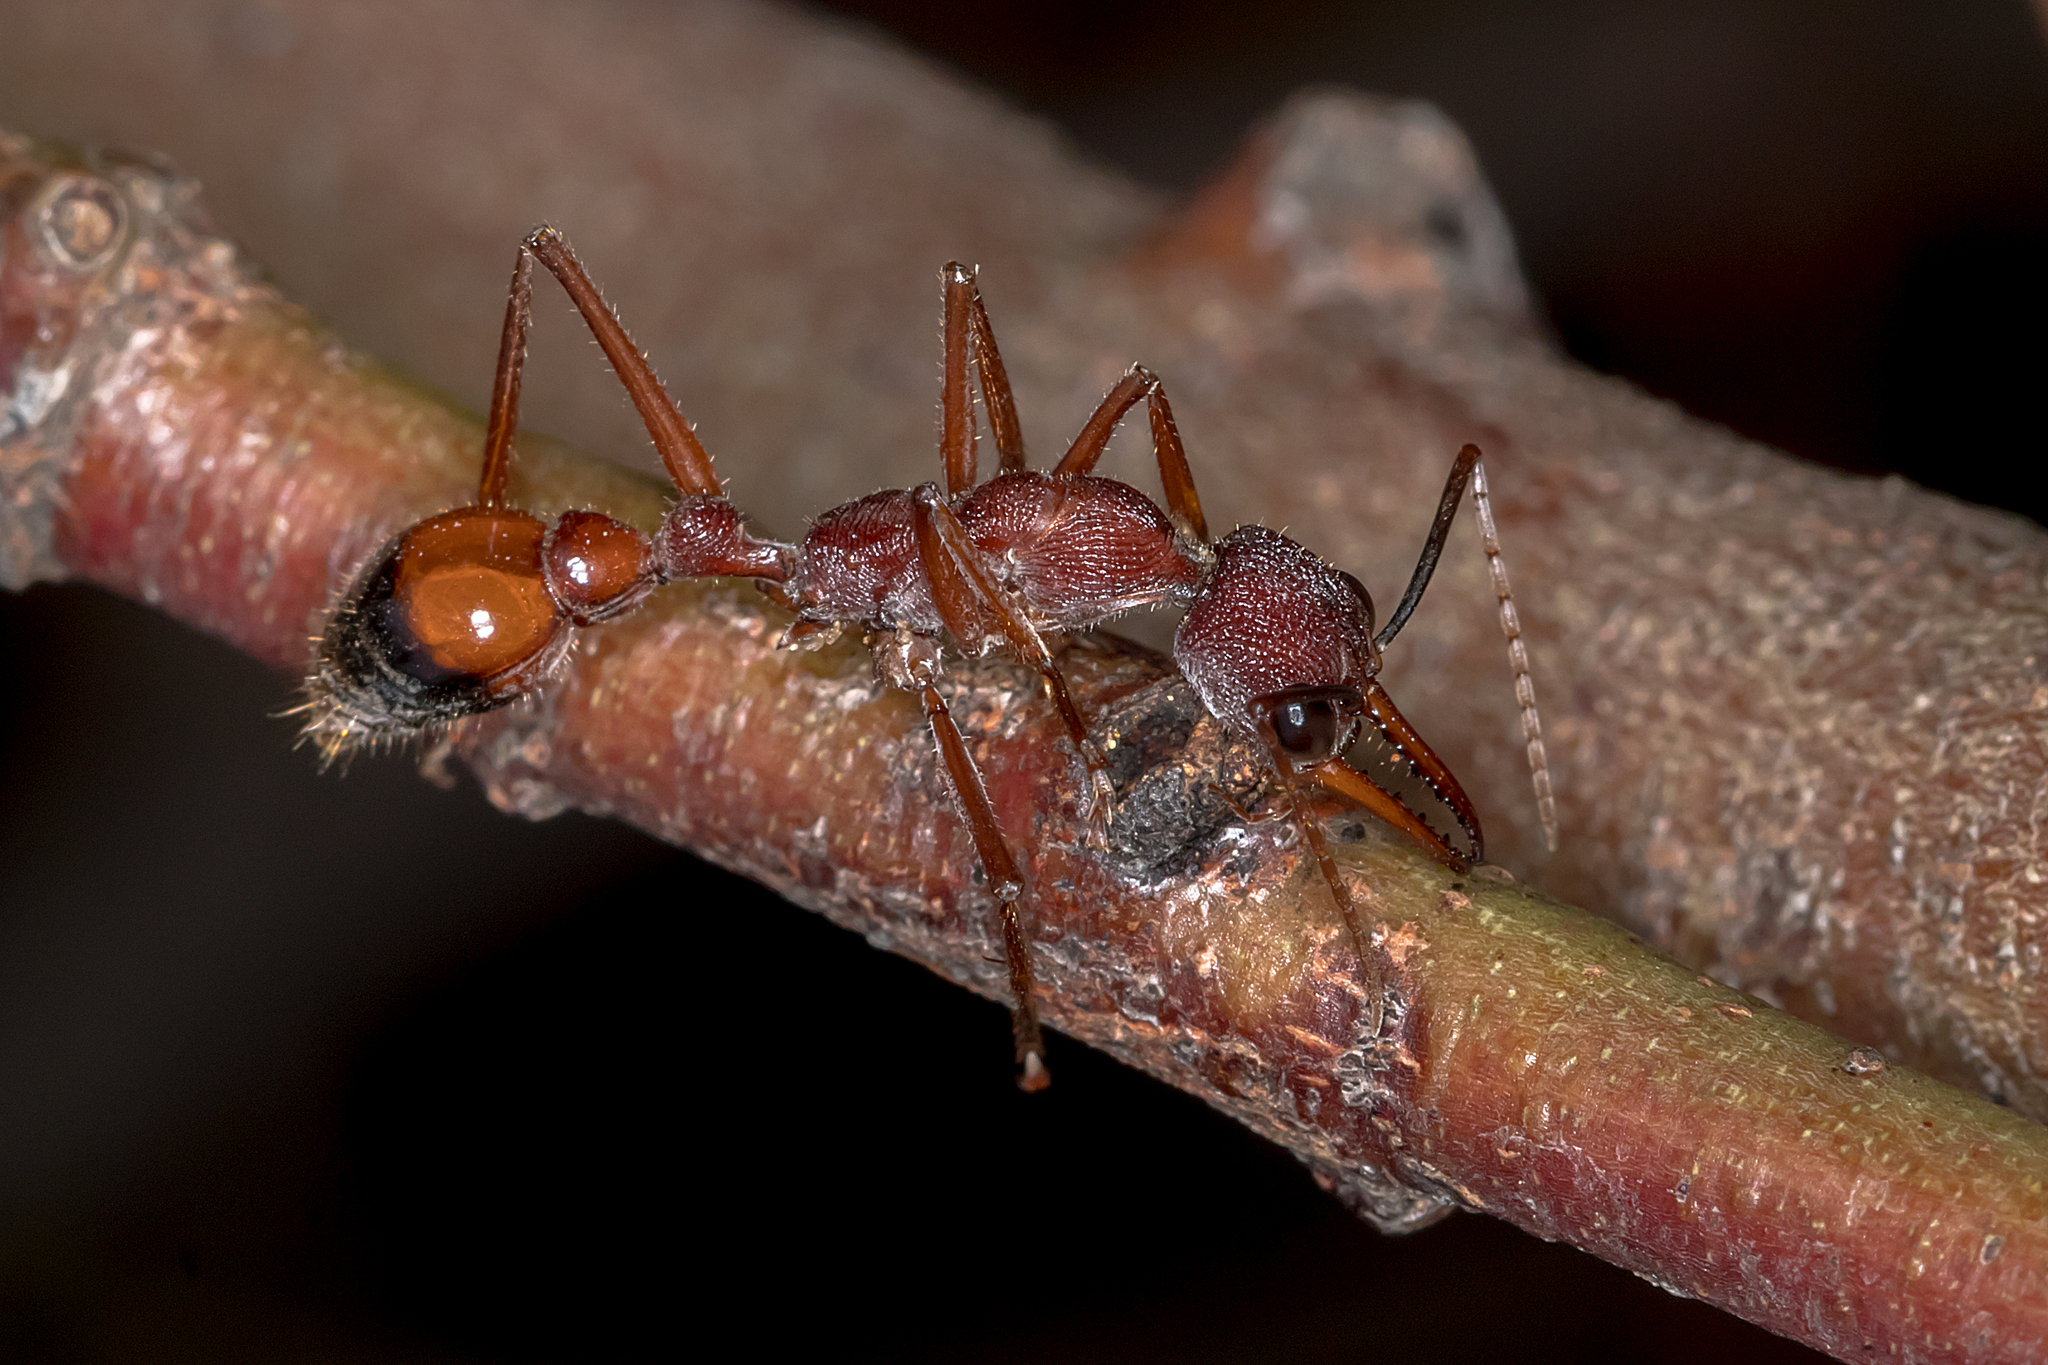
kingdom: Animalia
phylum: Arthropoda
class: Insecta
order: Hymenoptera
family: Formicidae
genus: Myrmecia
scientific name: Myrmecia nigriscapa
